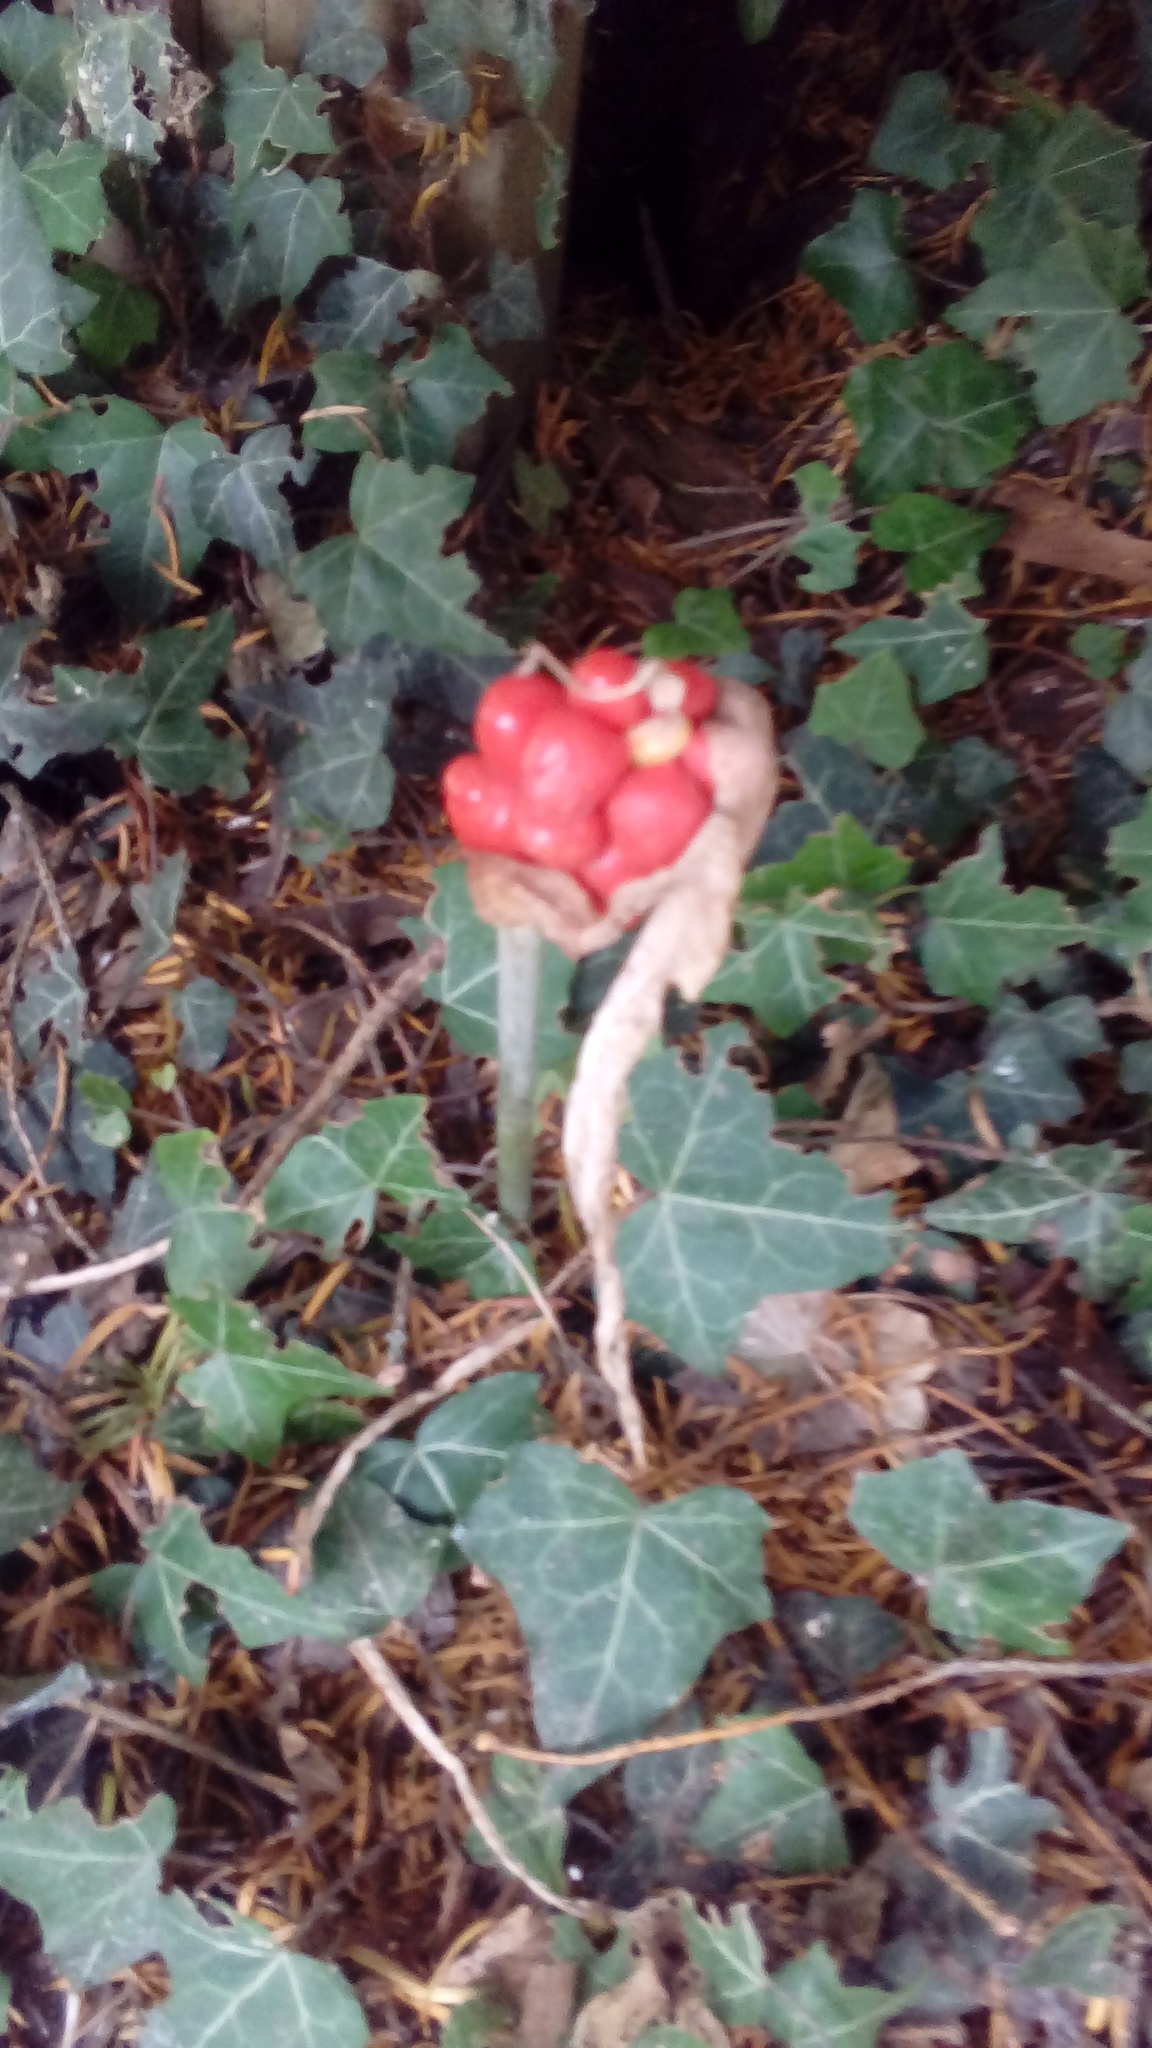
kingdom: Plantae
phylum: Tracheophyta
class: Liliopsida
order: Alismatales
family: Araceae
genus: Arum
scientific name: Arum maculatum
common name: Lords-and-ladies
